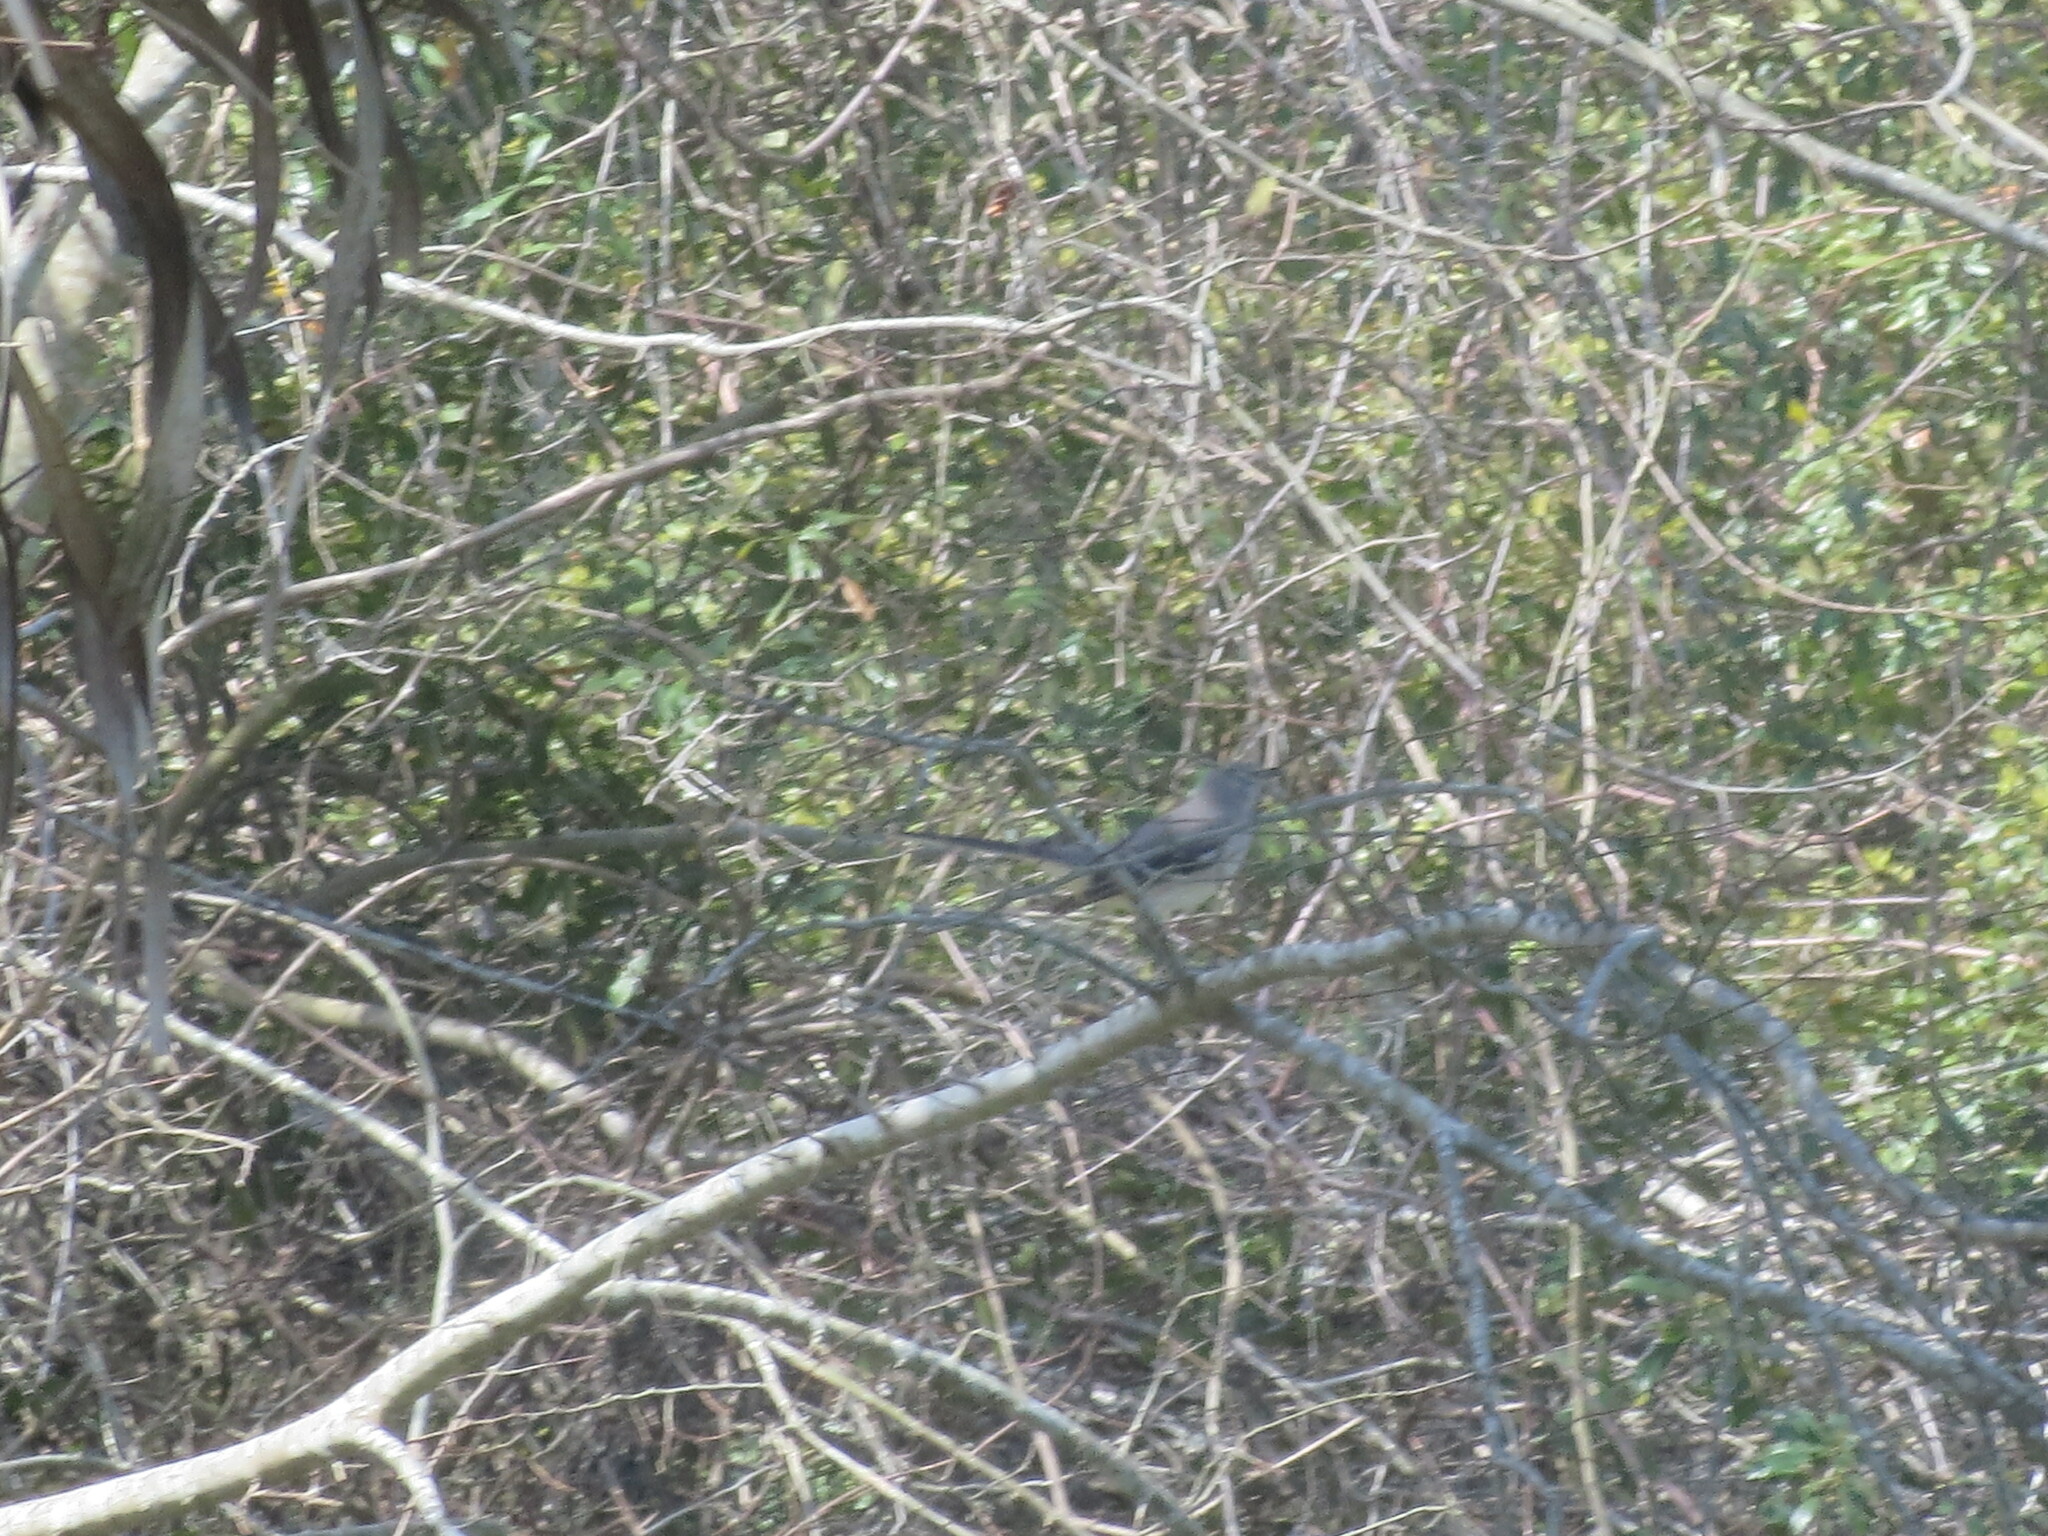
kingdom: Animalia
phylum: Chordata
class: Aves
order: Passeriformes
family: Mimidae
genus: Mimus
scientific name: Mimus polyglottos
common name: Northern mockingbird
